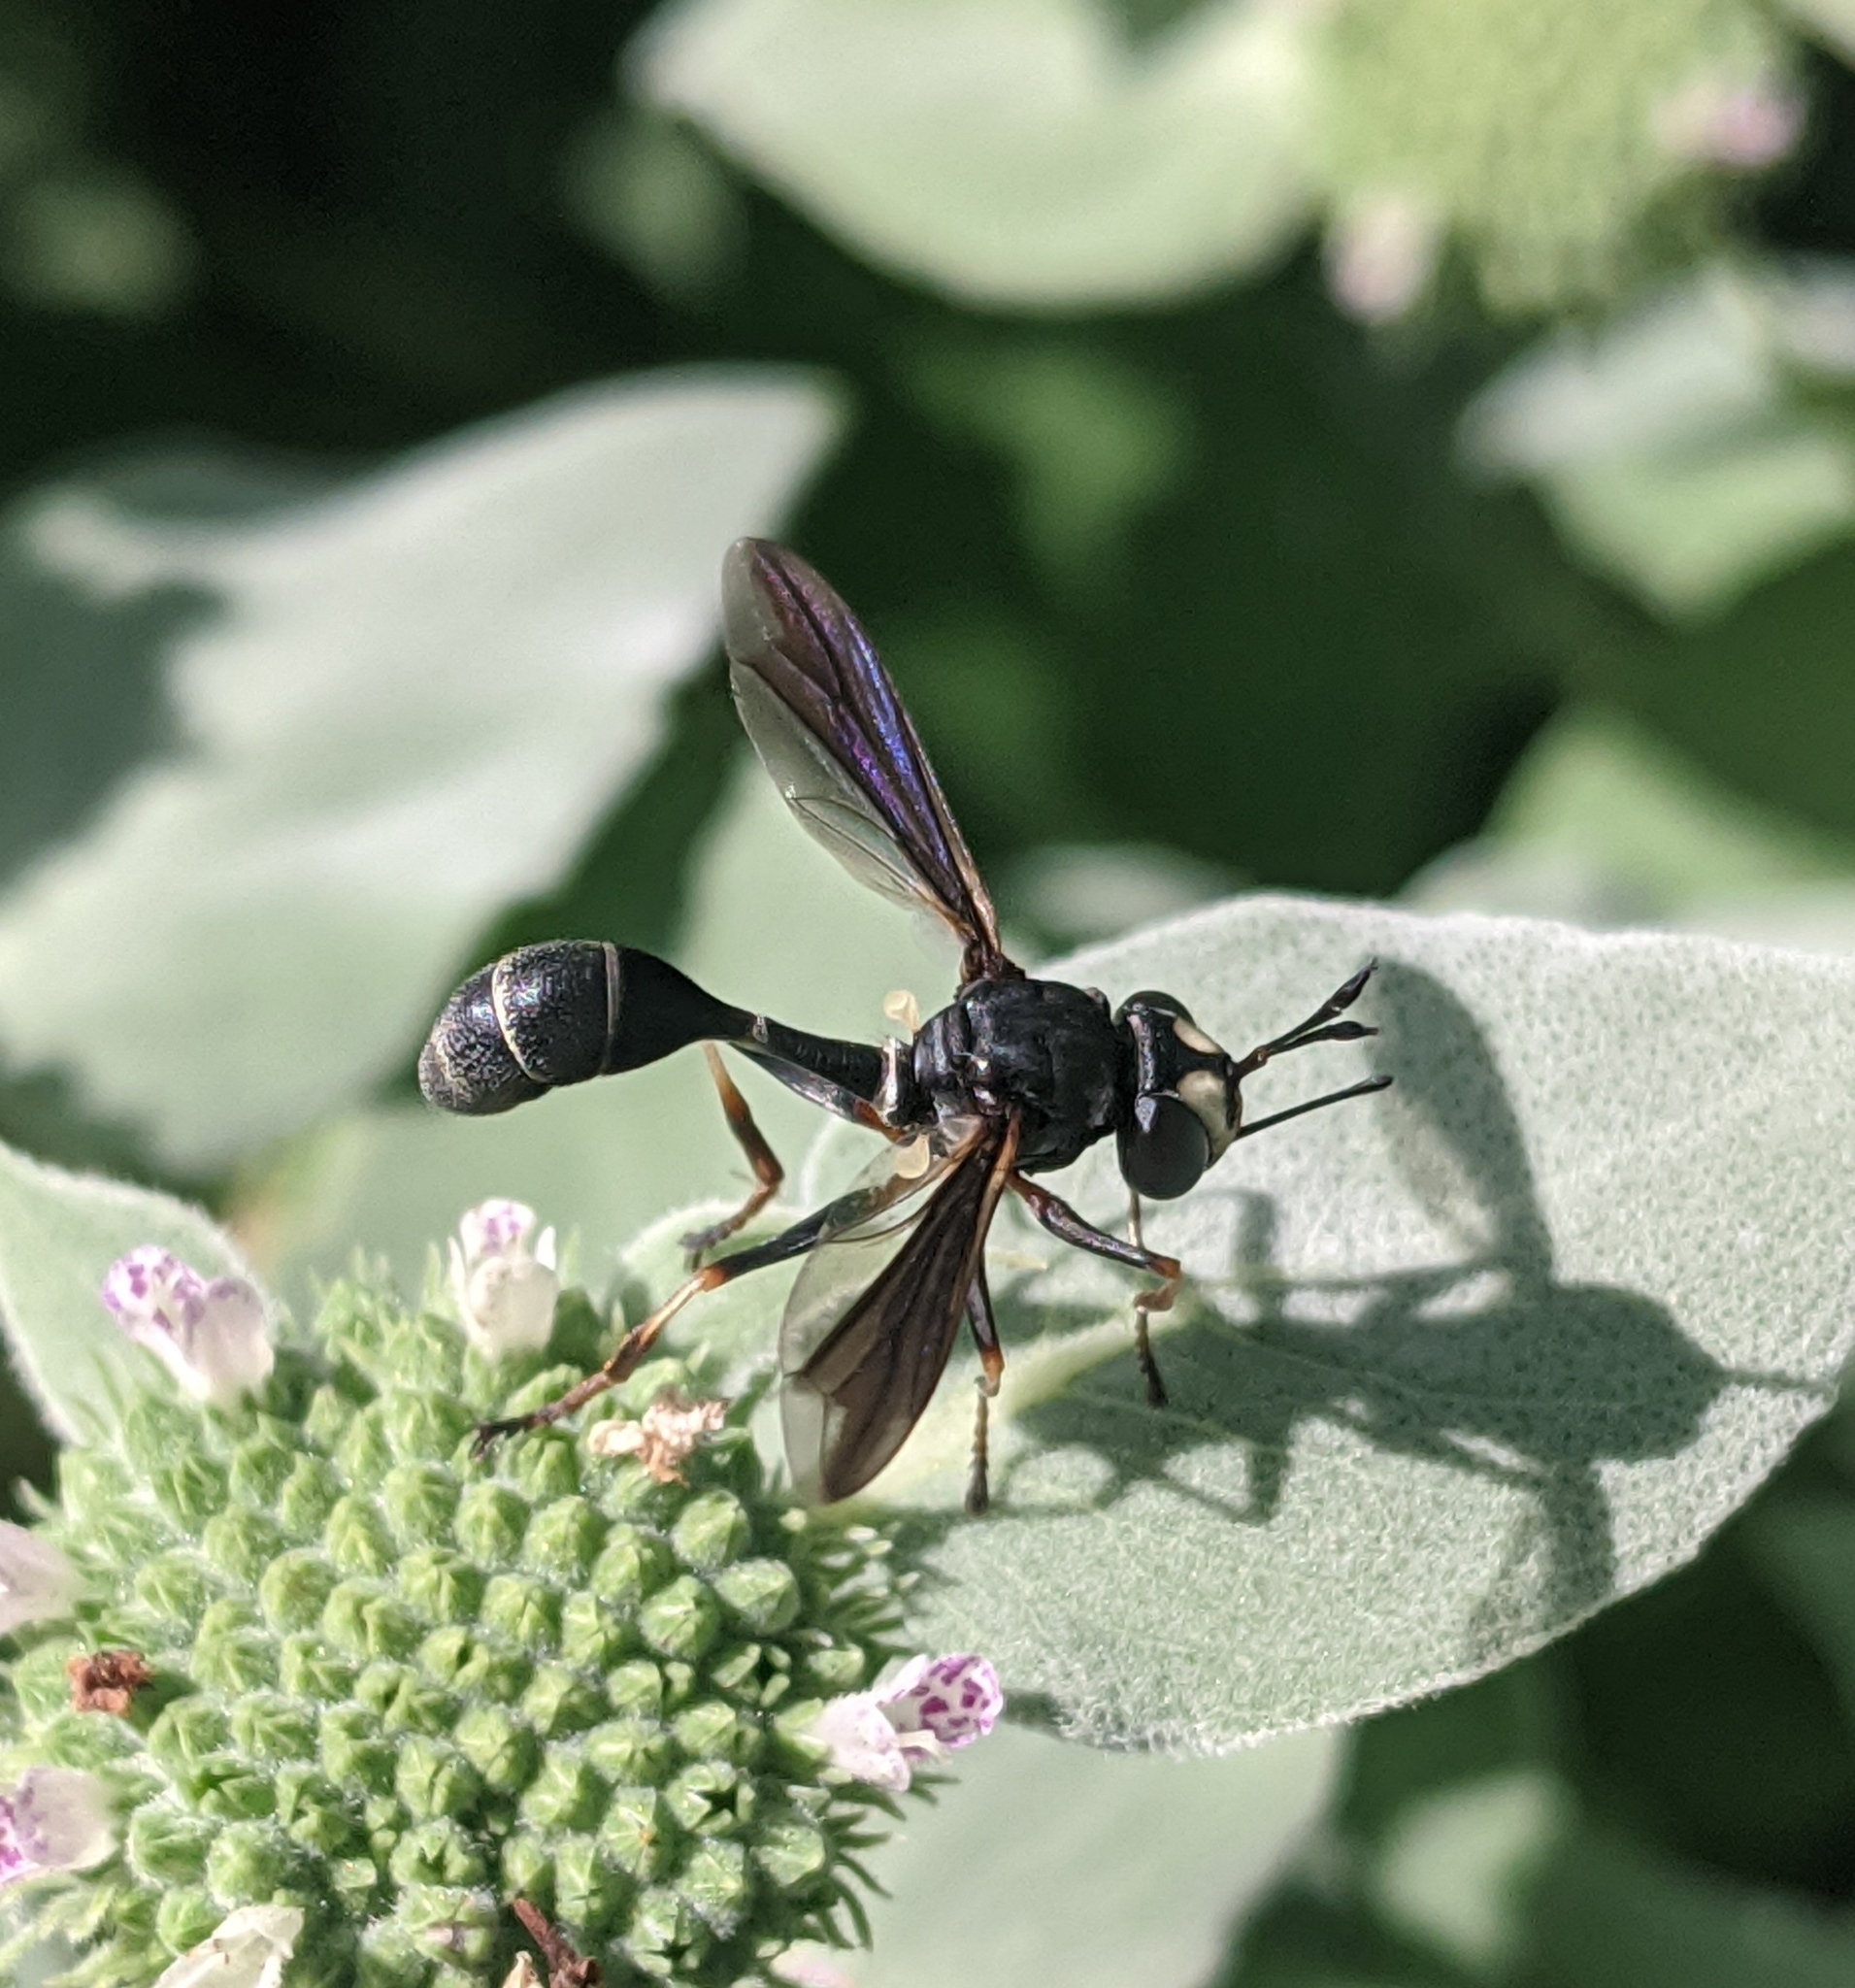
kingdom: Animalia
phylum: Arthropoda
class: Insecta
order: Diptera
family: Conopidae
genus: Physocephala
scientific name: Physocephala tibialis
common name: Common eastern physocephala
